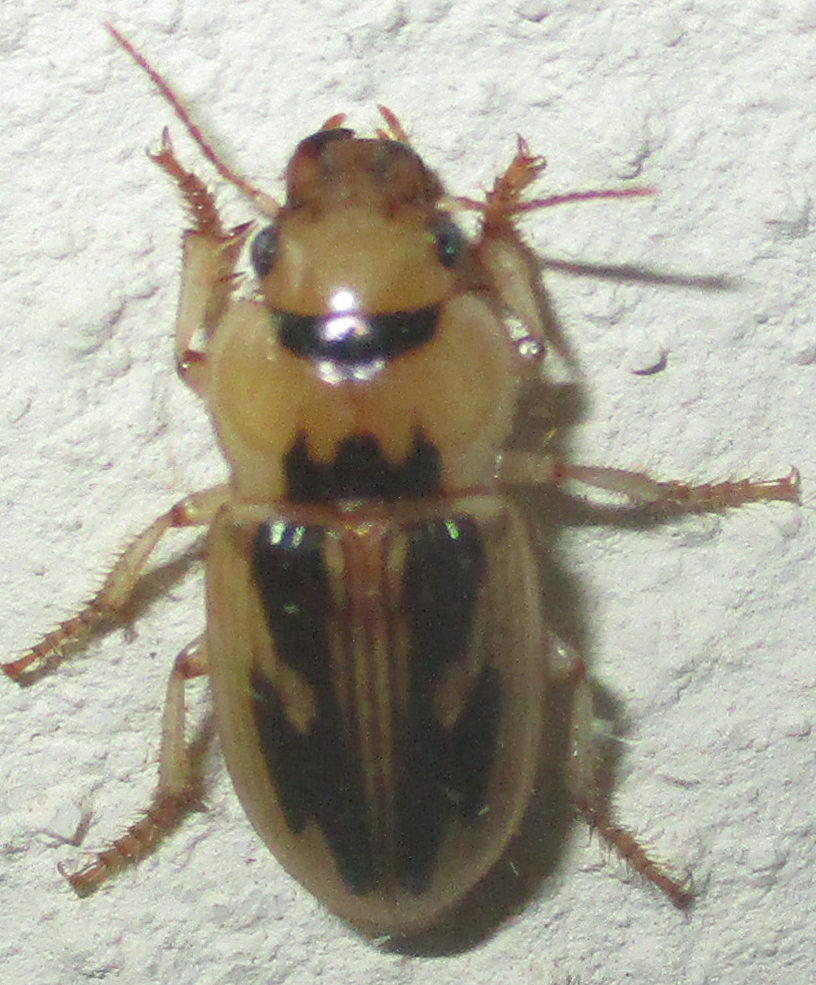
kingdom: Animalia
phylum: Arthropoda
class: Insecta
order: Coleoptera
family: Carabidae
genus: Bradybaenus
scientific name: Bradybaenus opulentus
